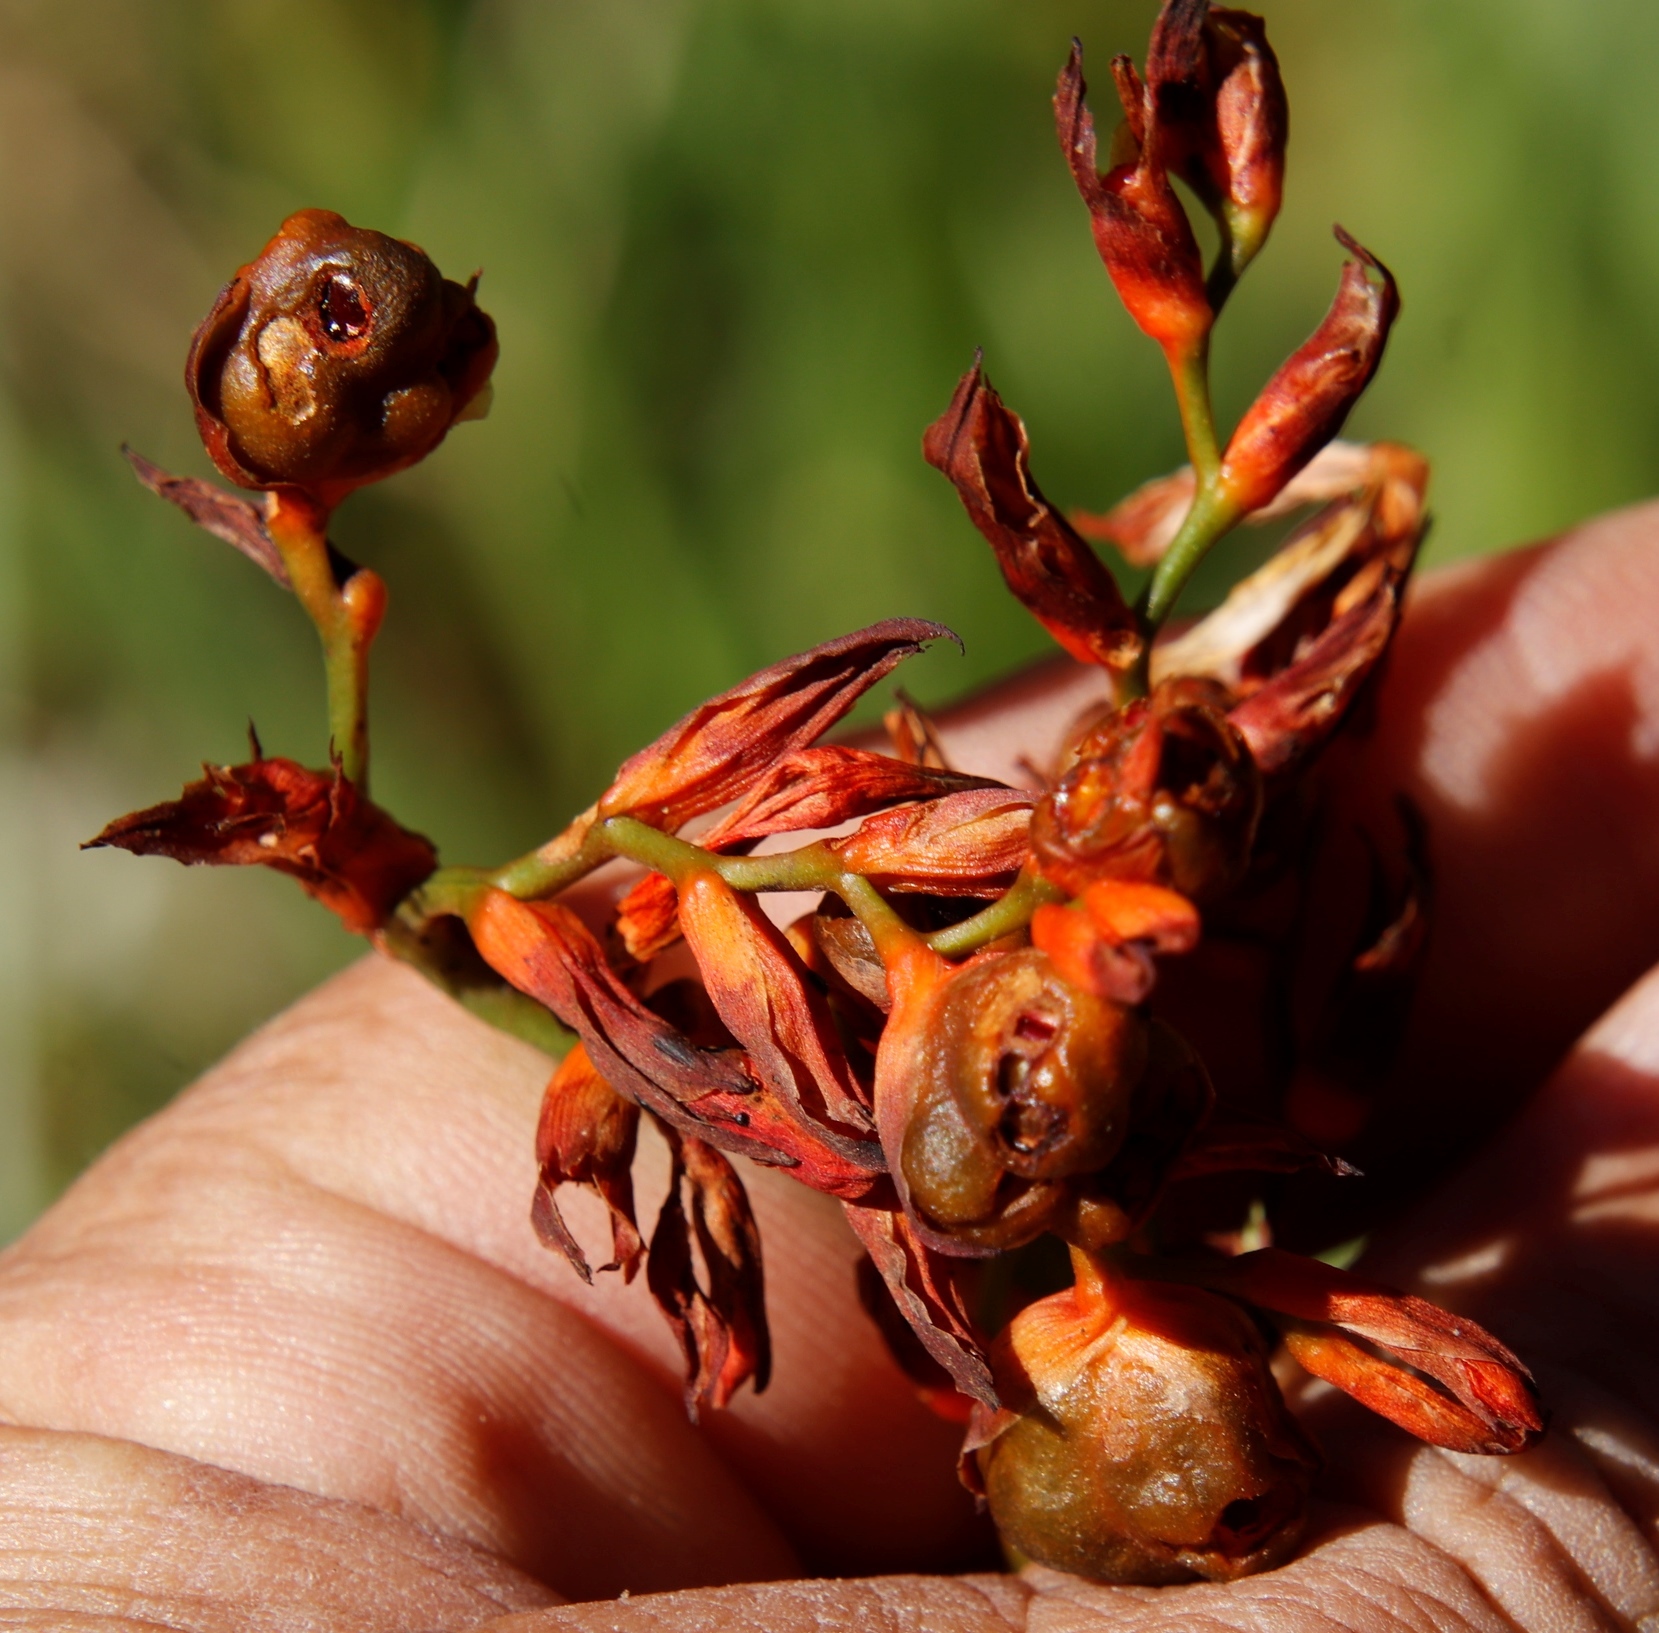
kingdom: Plantae
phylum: Tracheophyta
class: Liliopsida
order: Asparagales
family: Iridaceae
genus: Crocosmia
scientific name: Crocosmia aurea
